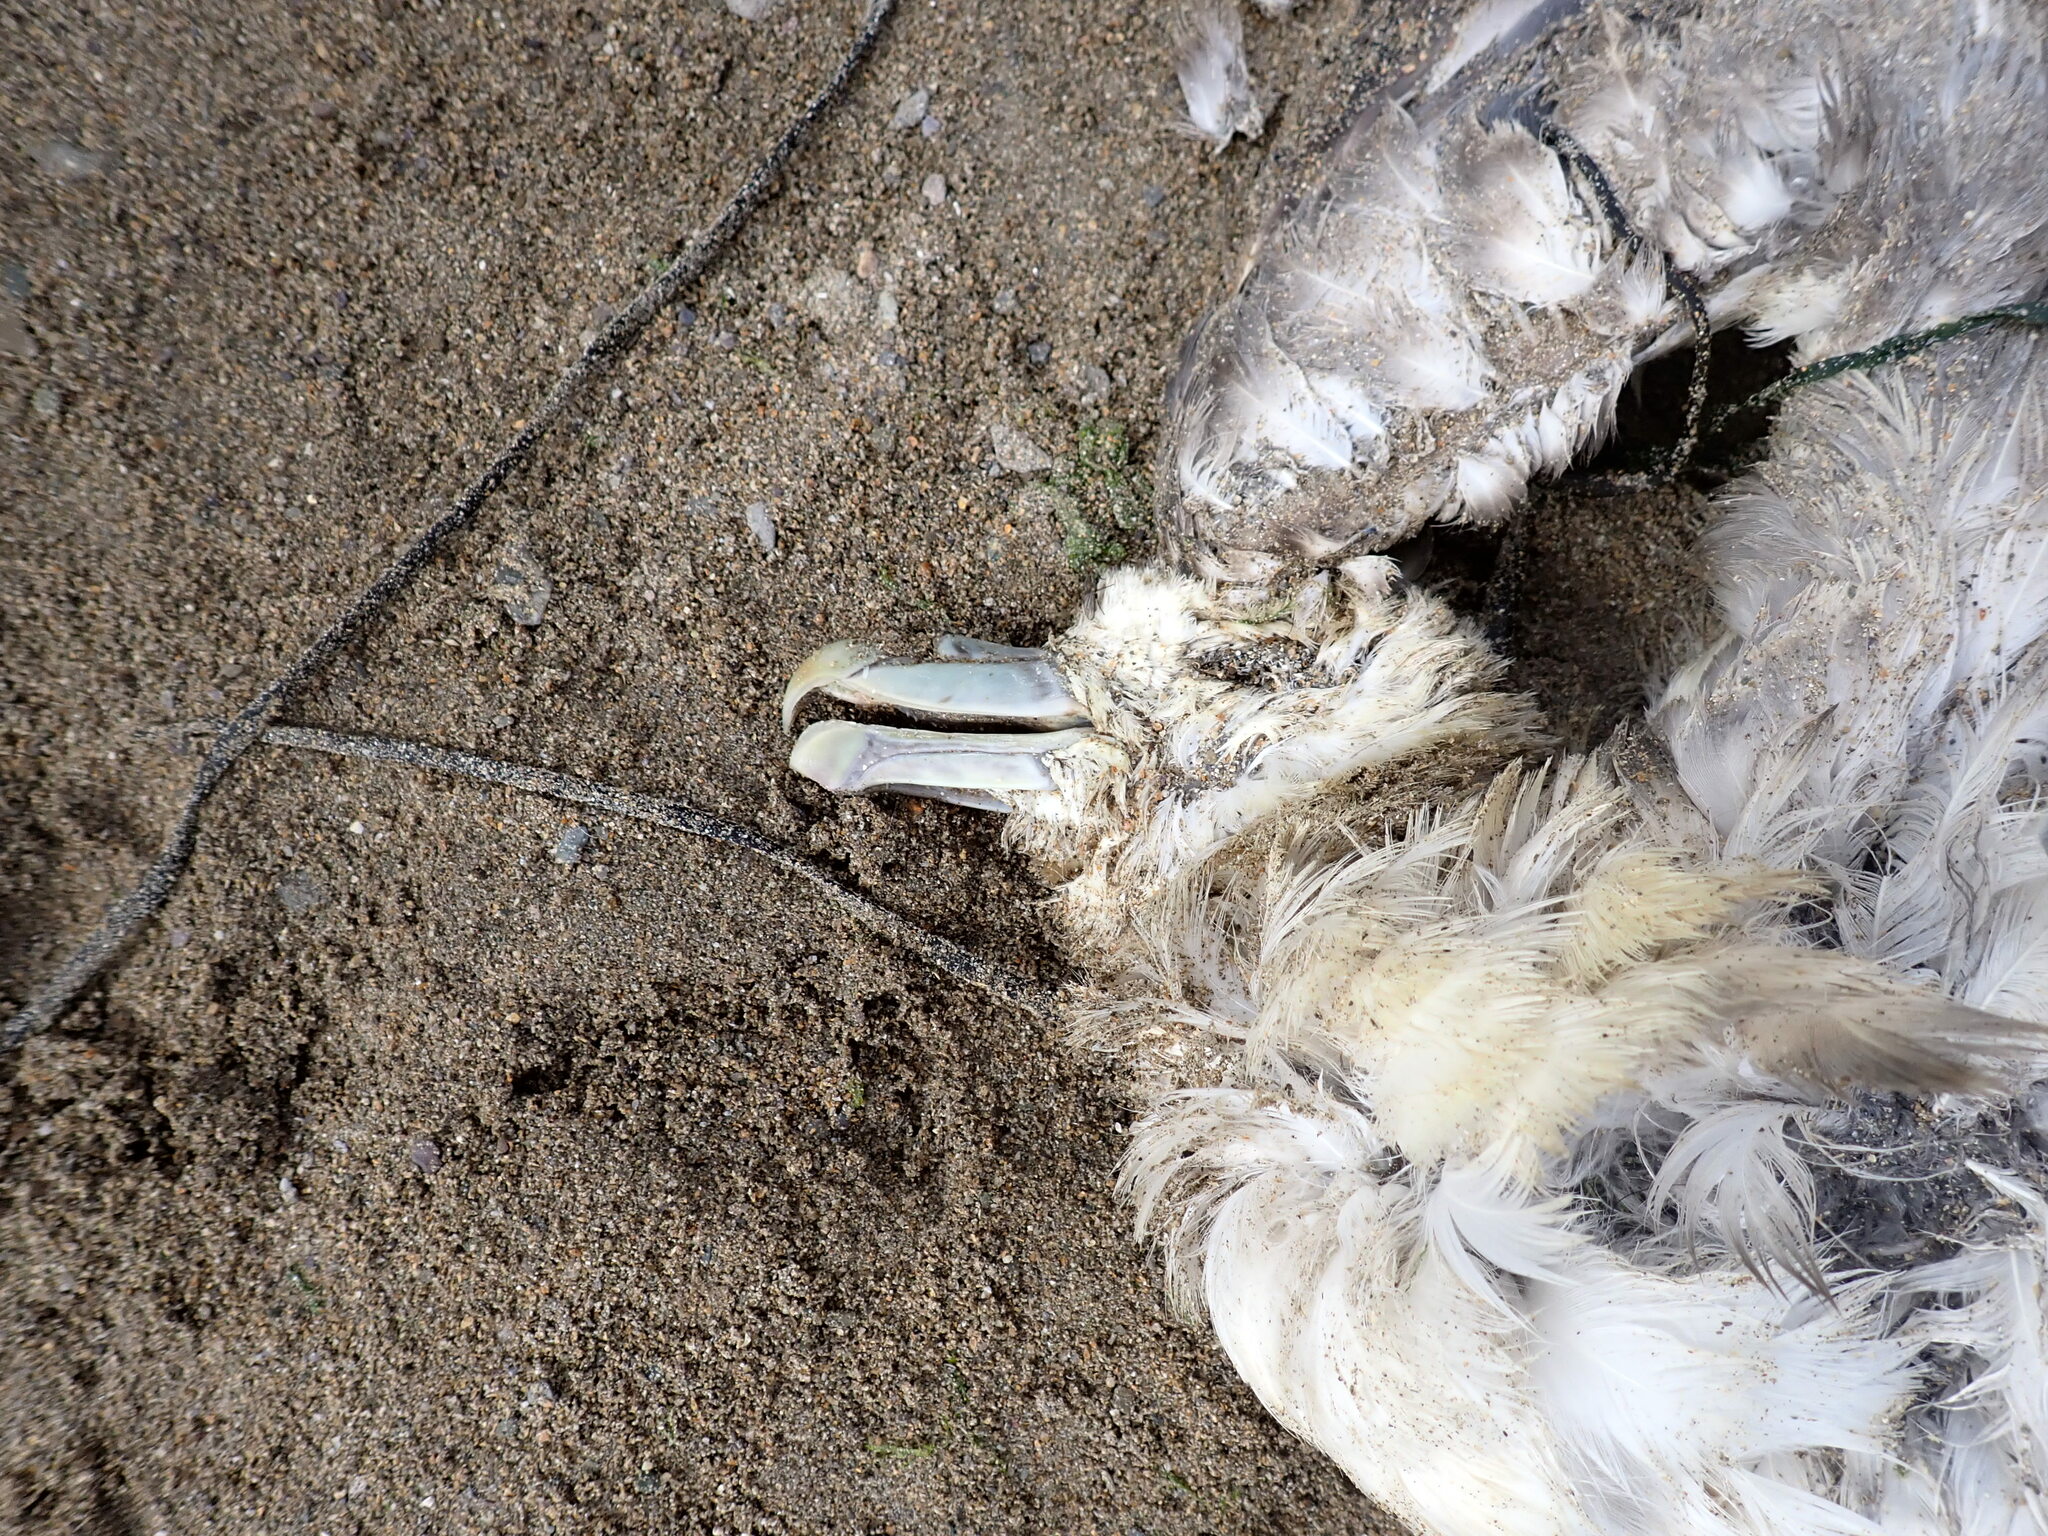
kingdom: Animalia
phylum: Chordata
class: Aves
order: Procellariiformes
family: Procellariidae
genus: Fulmarus
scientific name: Fulmarus glacialis
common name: Northern fulmar
